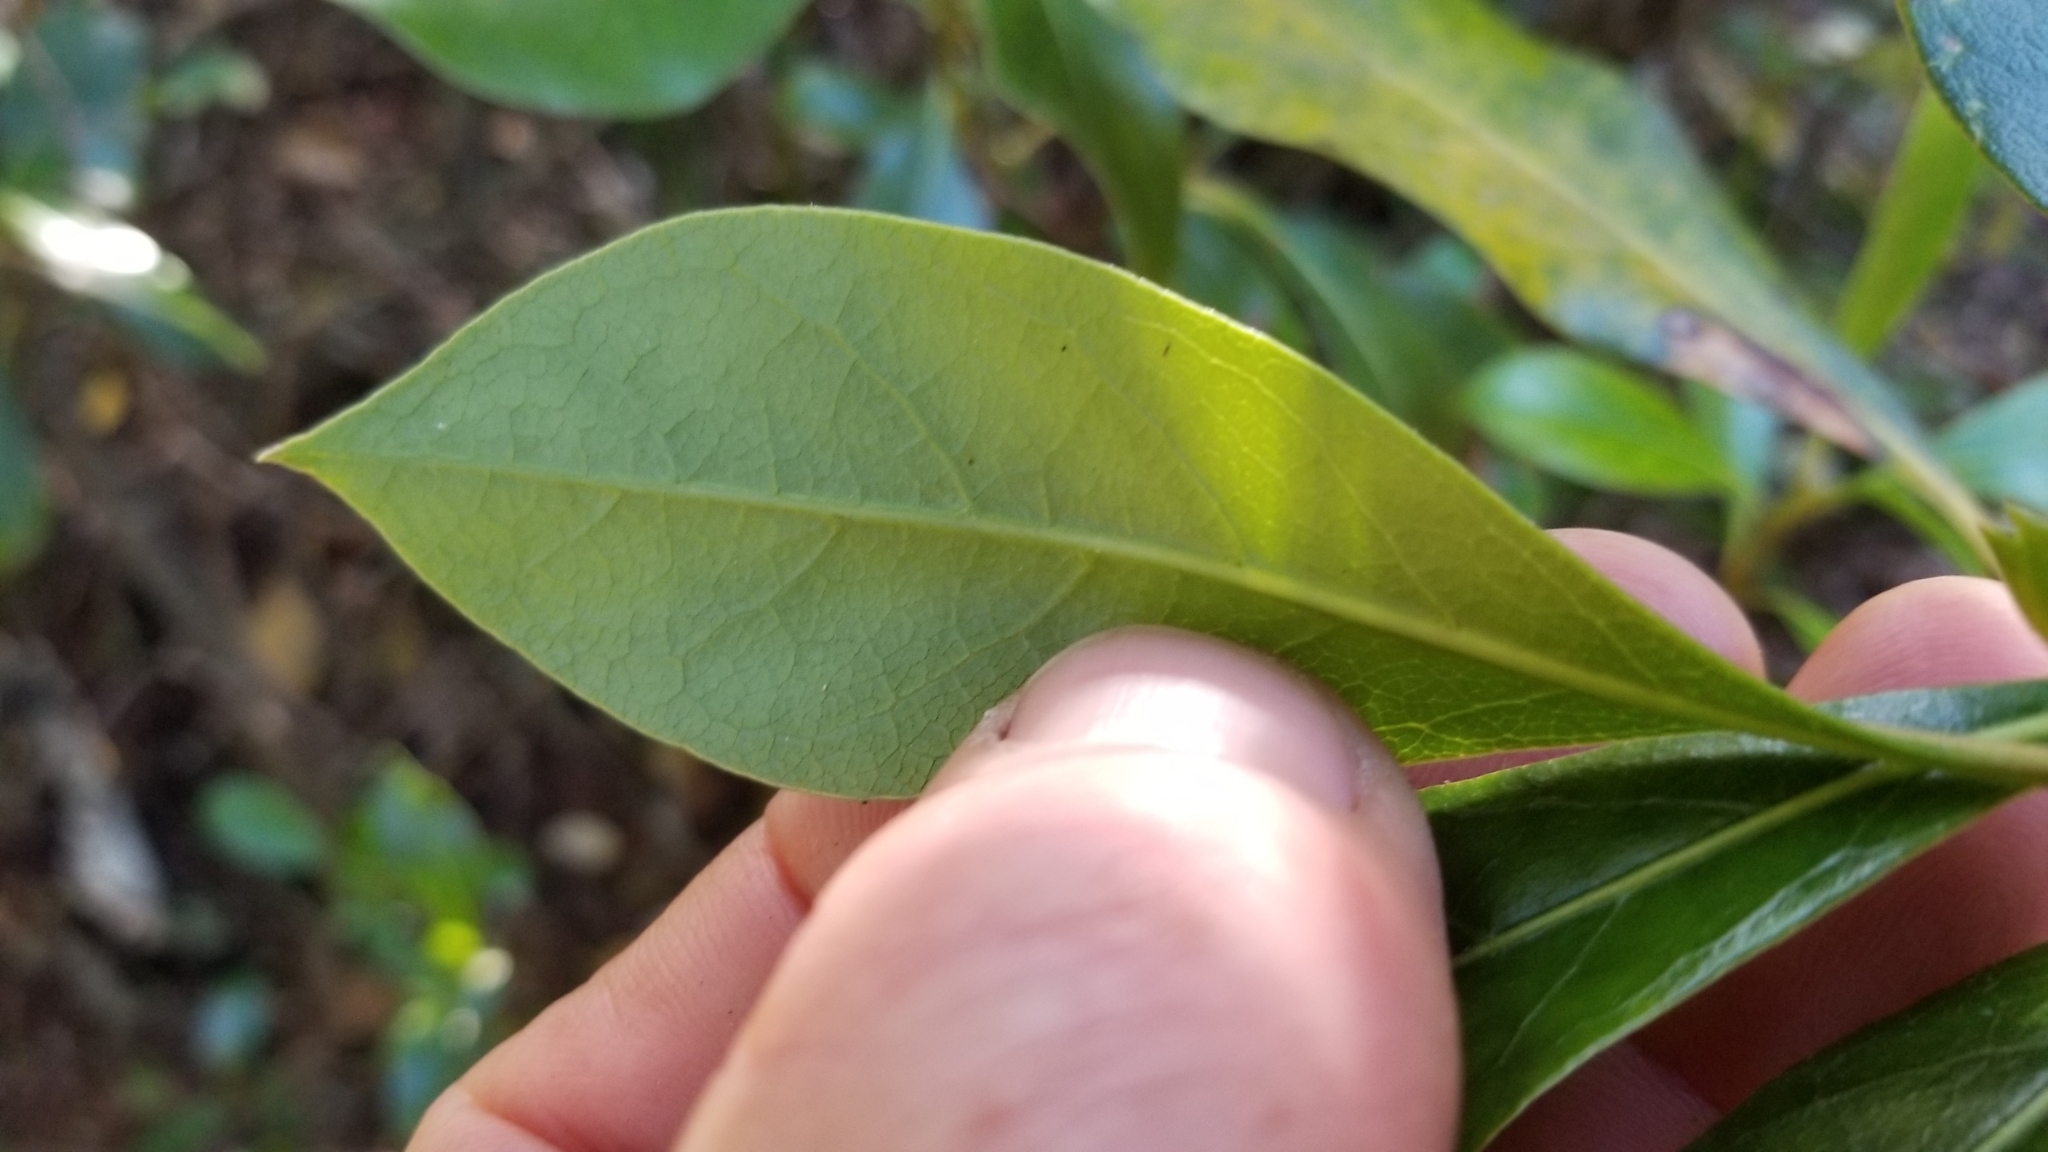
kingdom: Plantae
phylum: Tracheophyta
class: Magnoliopsida
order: Gentianales
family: Rubiaceae
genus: Coprosma
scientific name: Coprosma lucida
